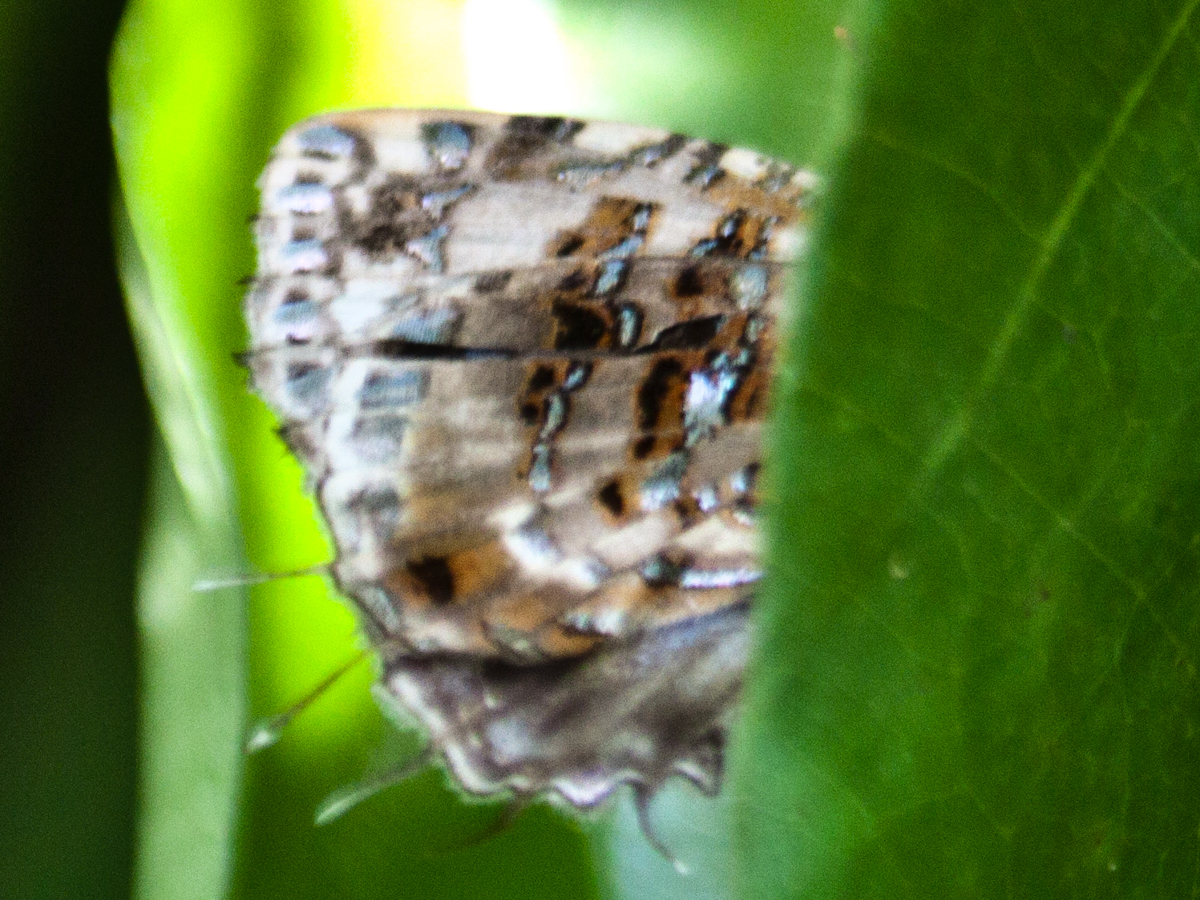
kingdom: Animalia
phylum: Arthropoda
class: Insecta
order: Lepidoptera
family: Lycaenidae
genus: Catapaecilma
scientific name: Catapaecilma major
